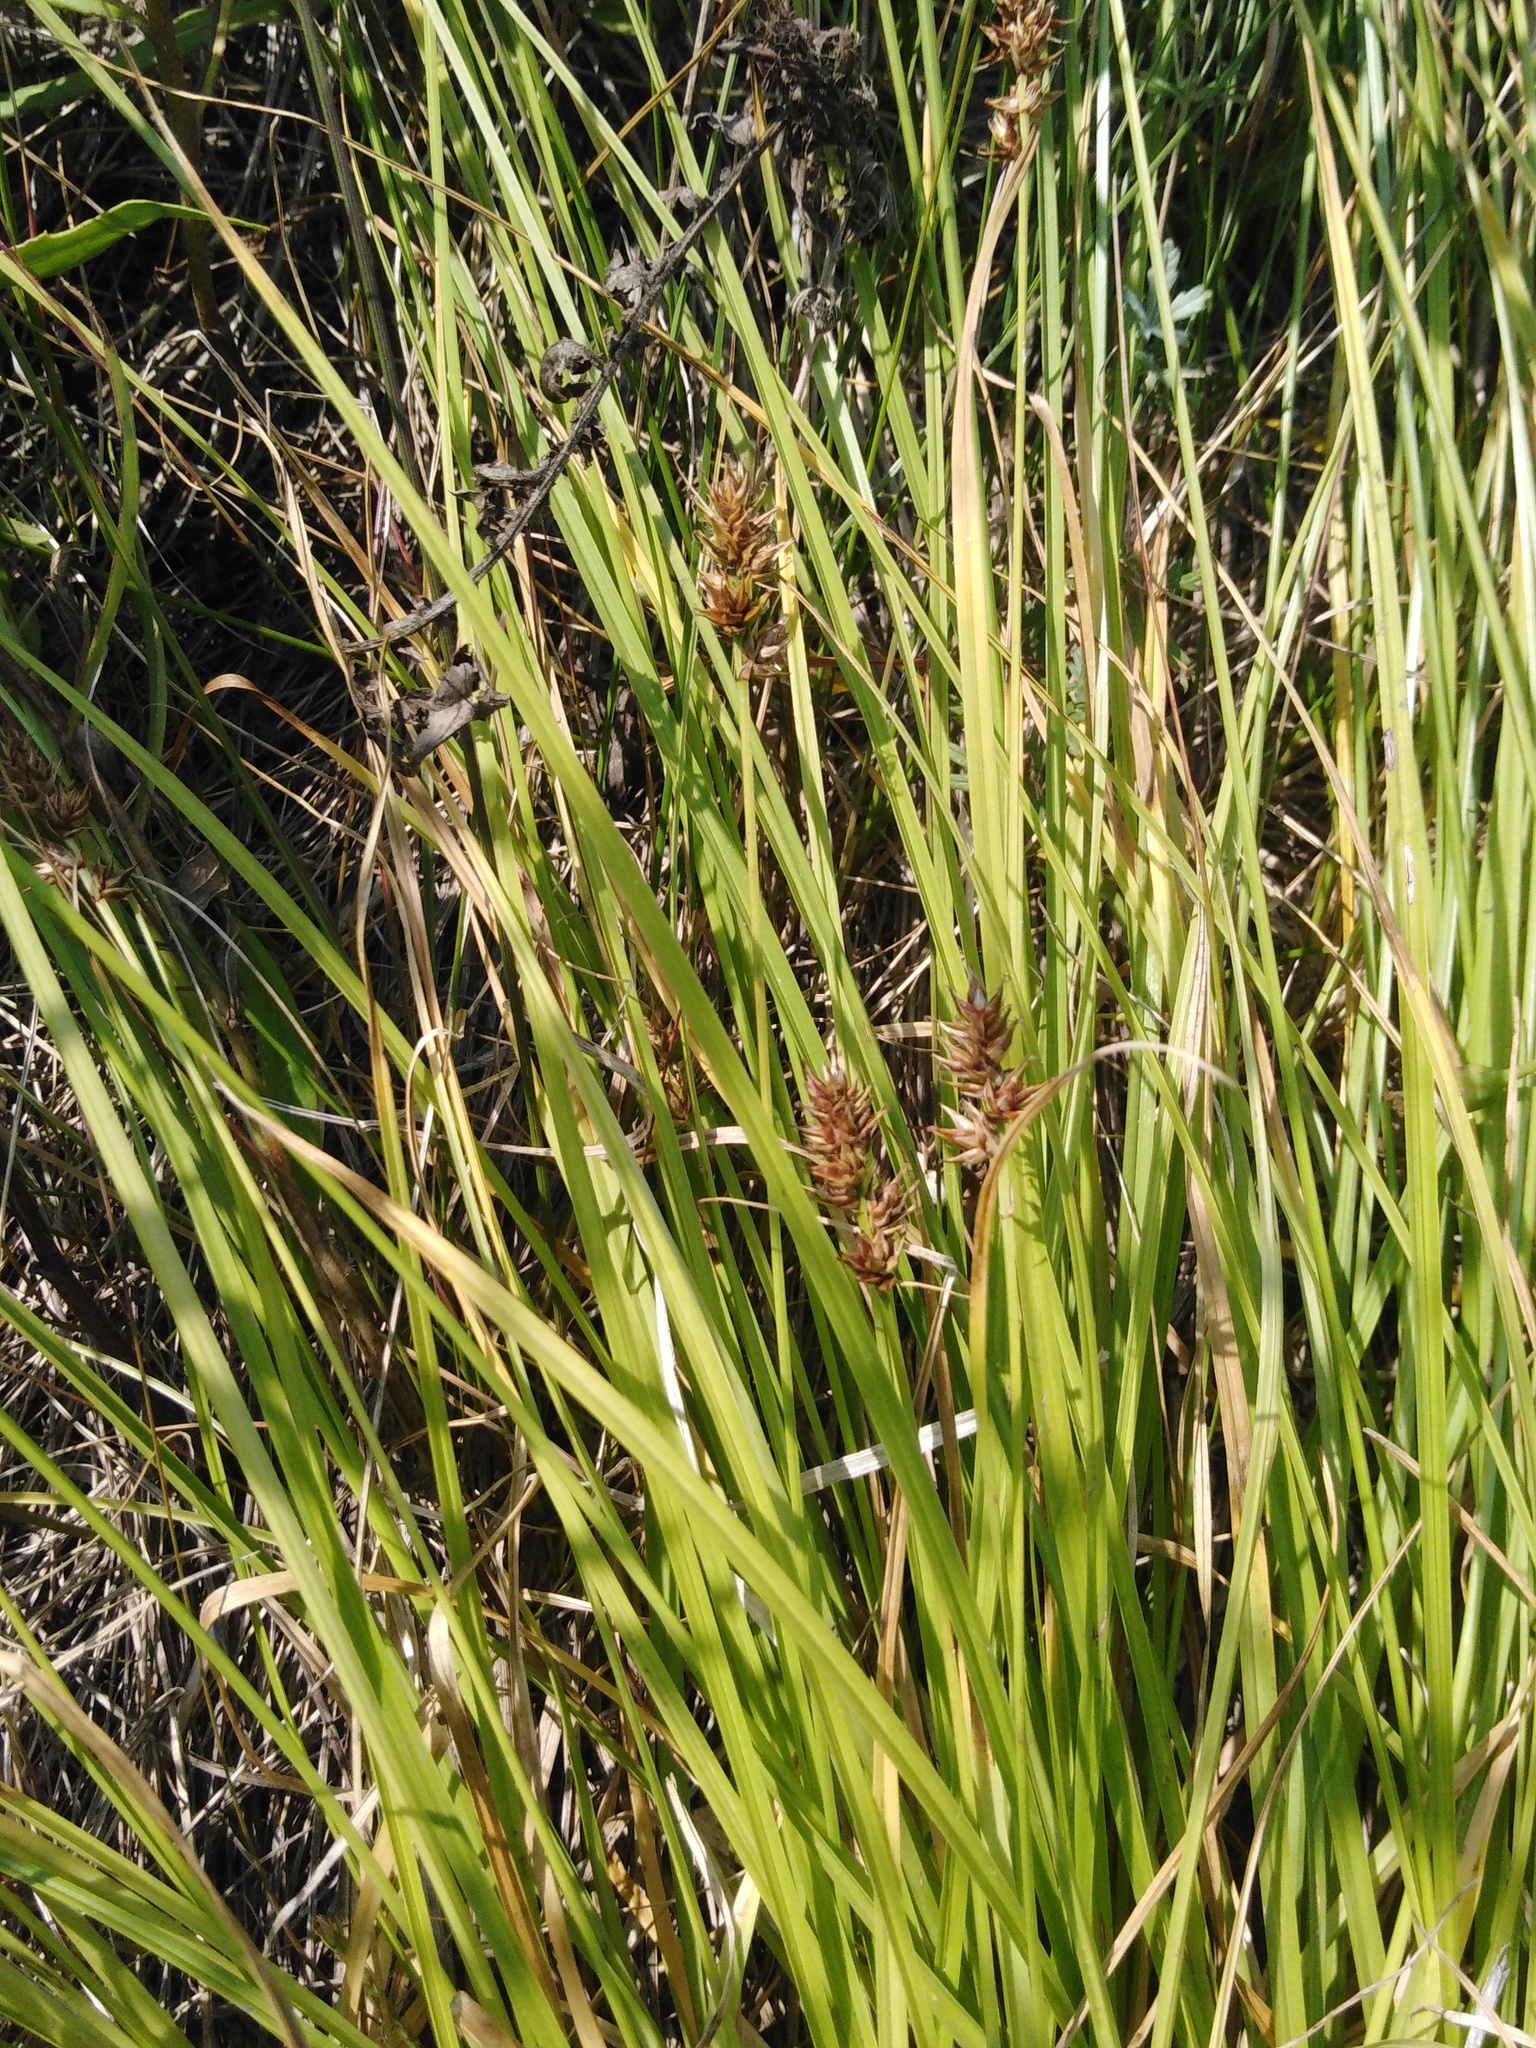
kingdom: Plantae
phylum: Tracheophyta
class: Liliopsida
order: Poales
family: Cyperaceae
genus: Carex
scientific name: Carex spicata
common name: Spiked sedge
